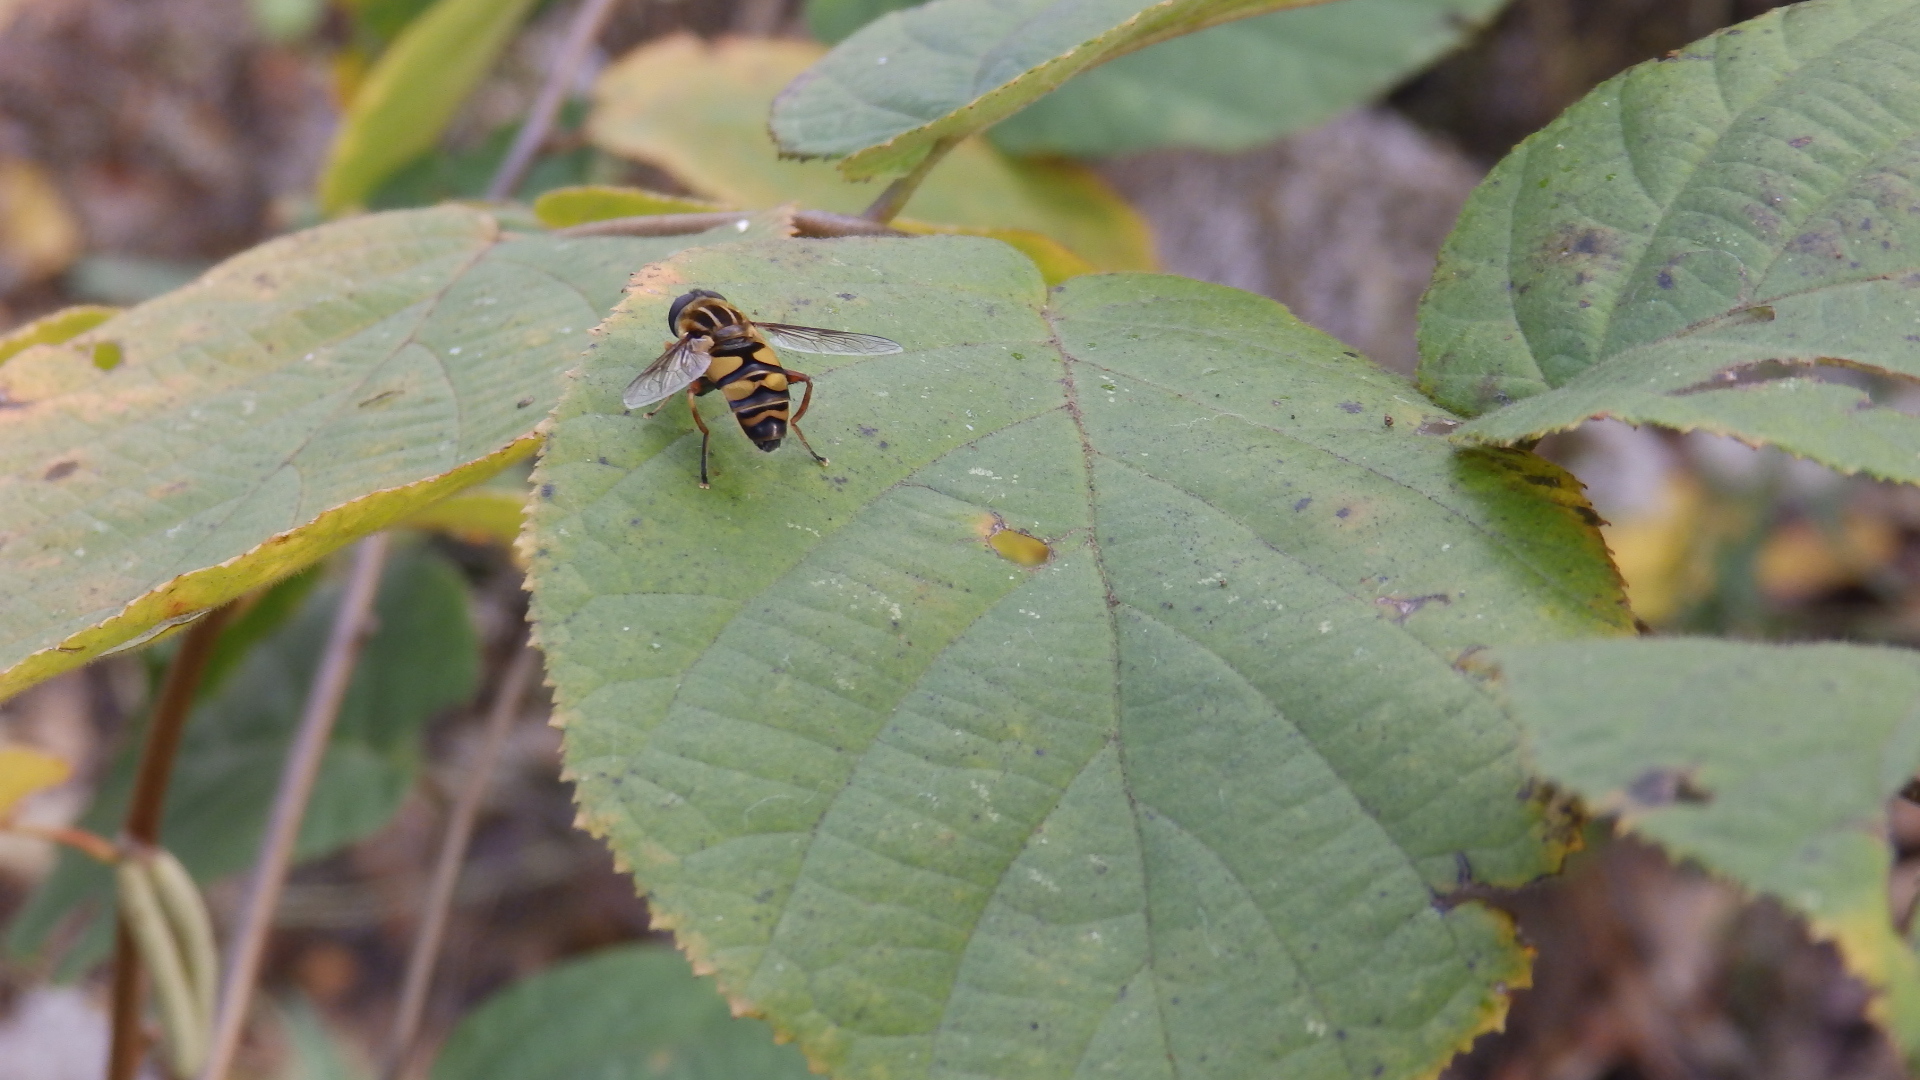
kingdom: Animalia
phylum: Arthropoda
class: Insecta
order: Diptera
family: Syrphidae
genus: Helophilus
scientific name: Helophilus fasciatus
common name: Narrow-headed marsh fly
